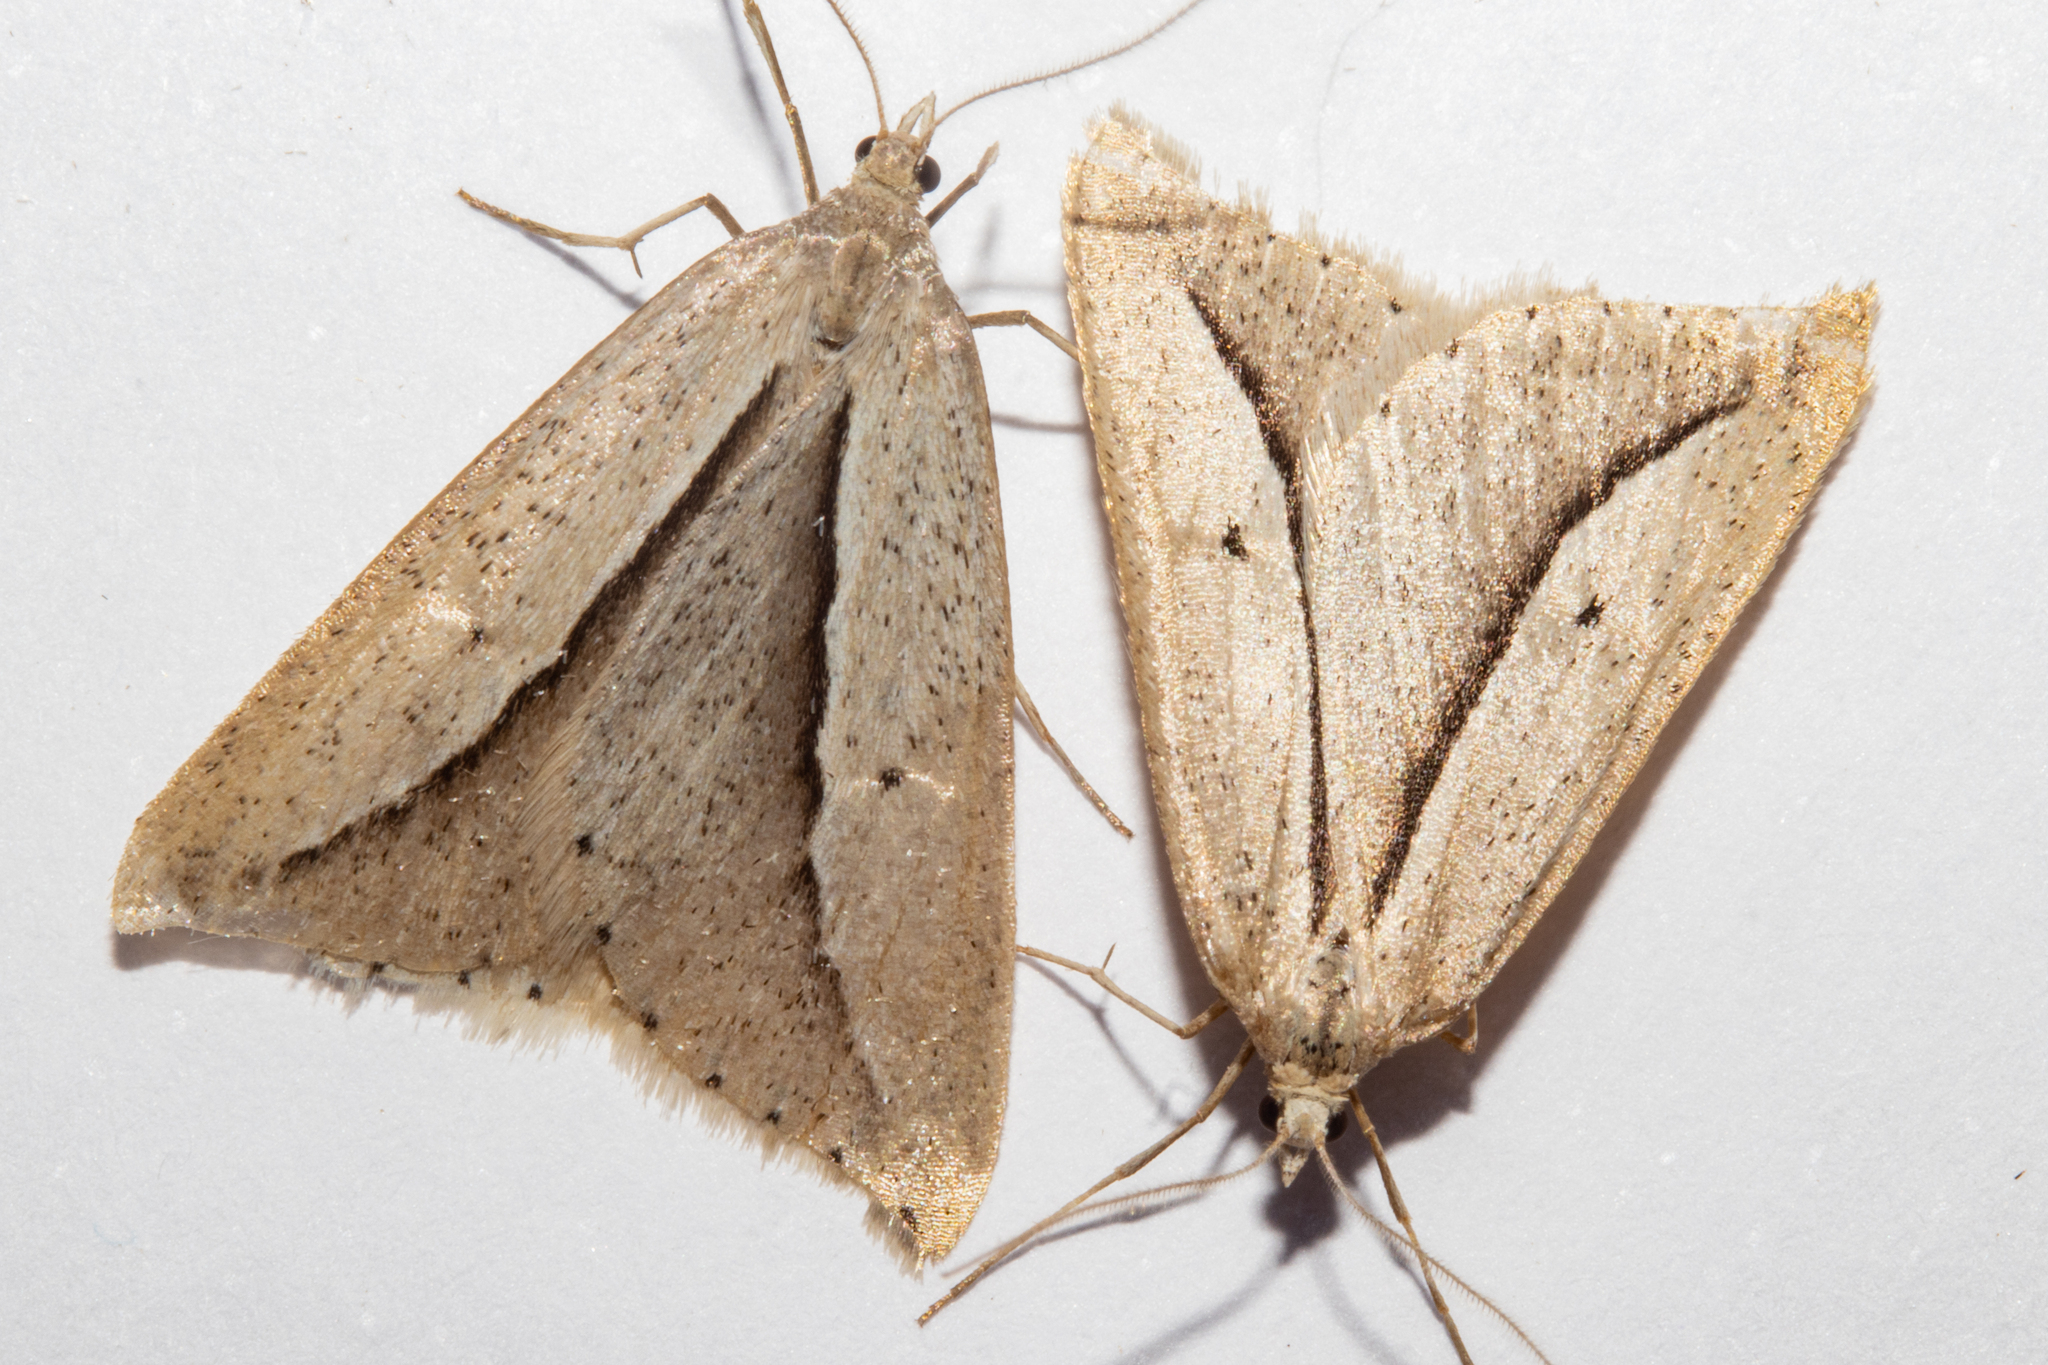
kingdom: Animalia
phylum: Arthropoda
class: Insecta
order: Lepidoptera
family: Geometridae
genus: Theoxena
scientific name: Theoxena scissaria
